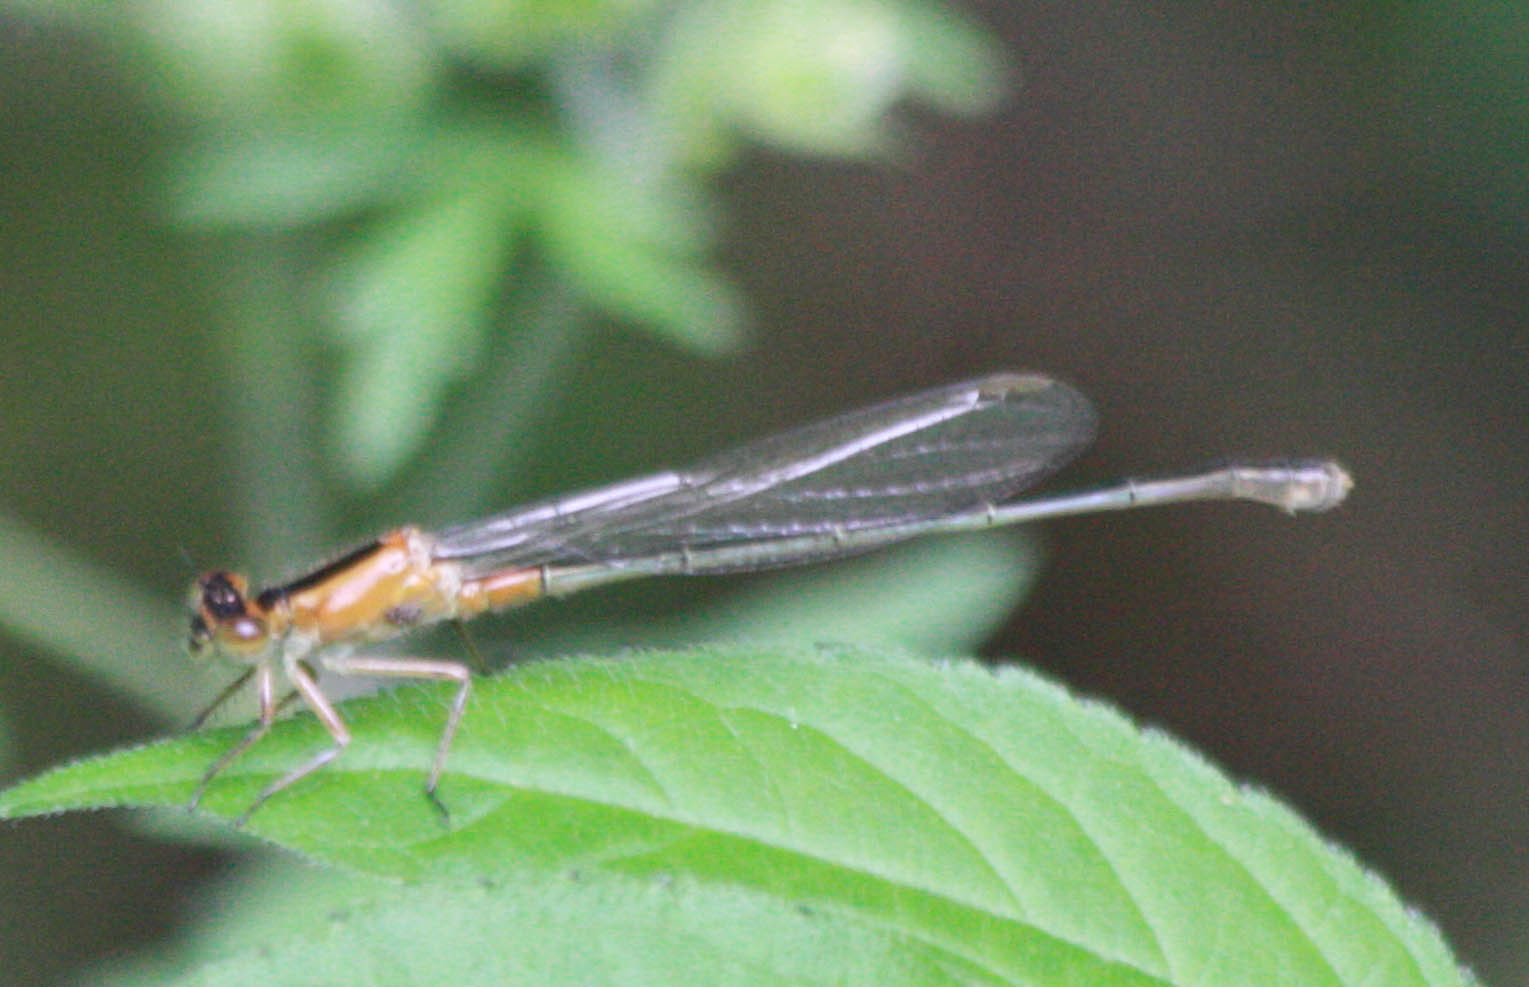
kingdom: Animalia
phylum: Arthropoda
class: Insecta
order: Odonata
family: Coenagrionidae
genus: Ischnura
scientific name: Ischnura ramburii
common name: Rambur's forktail
